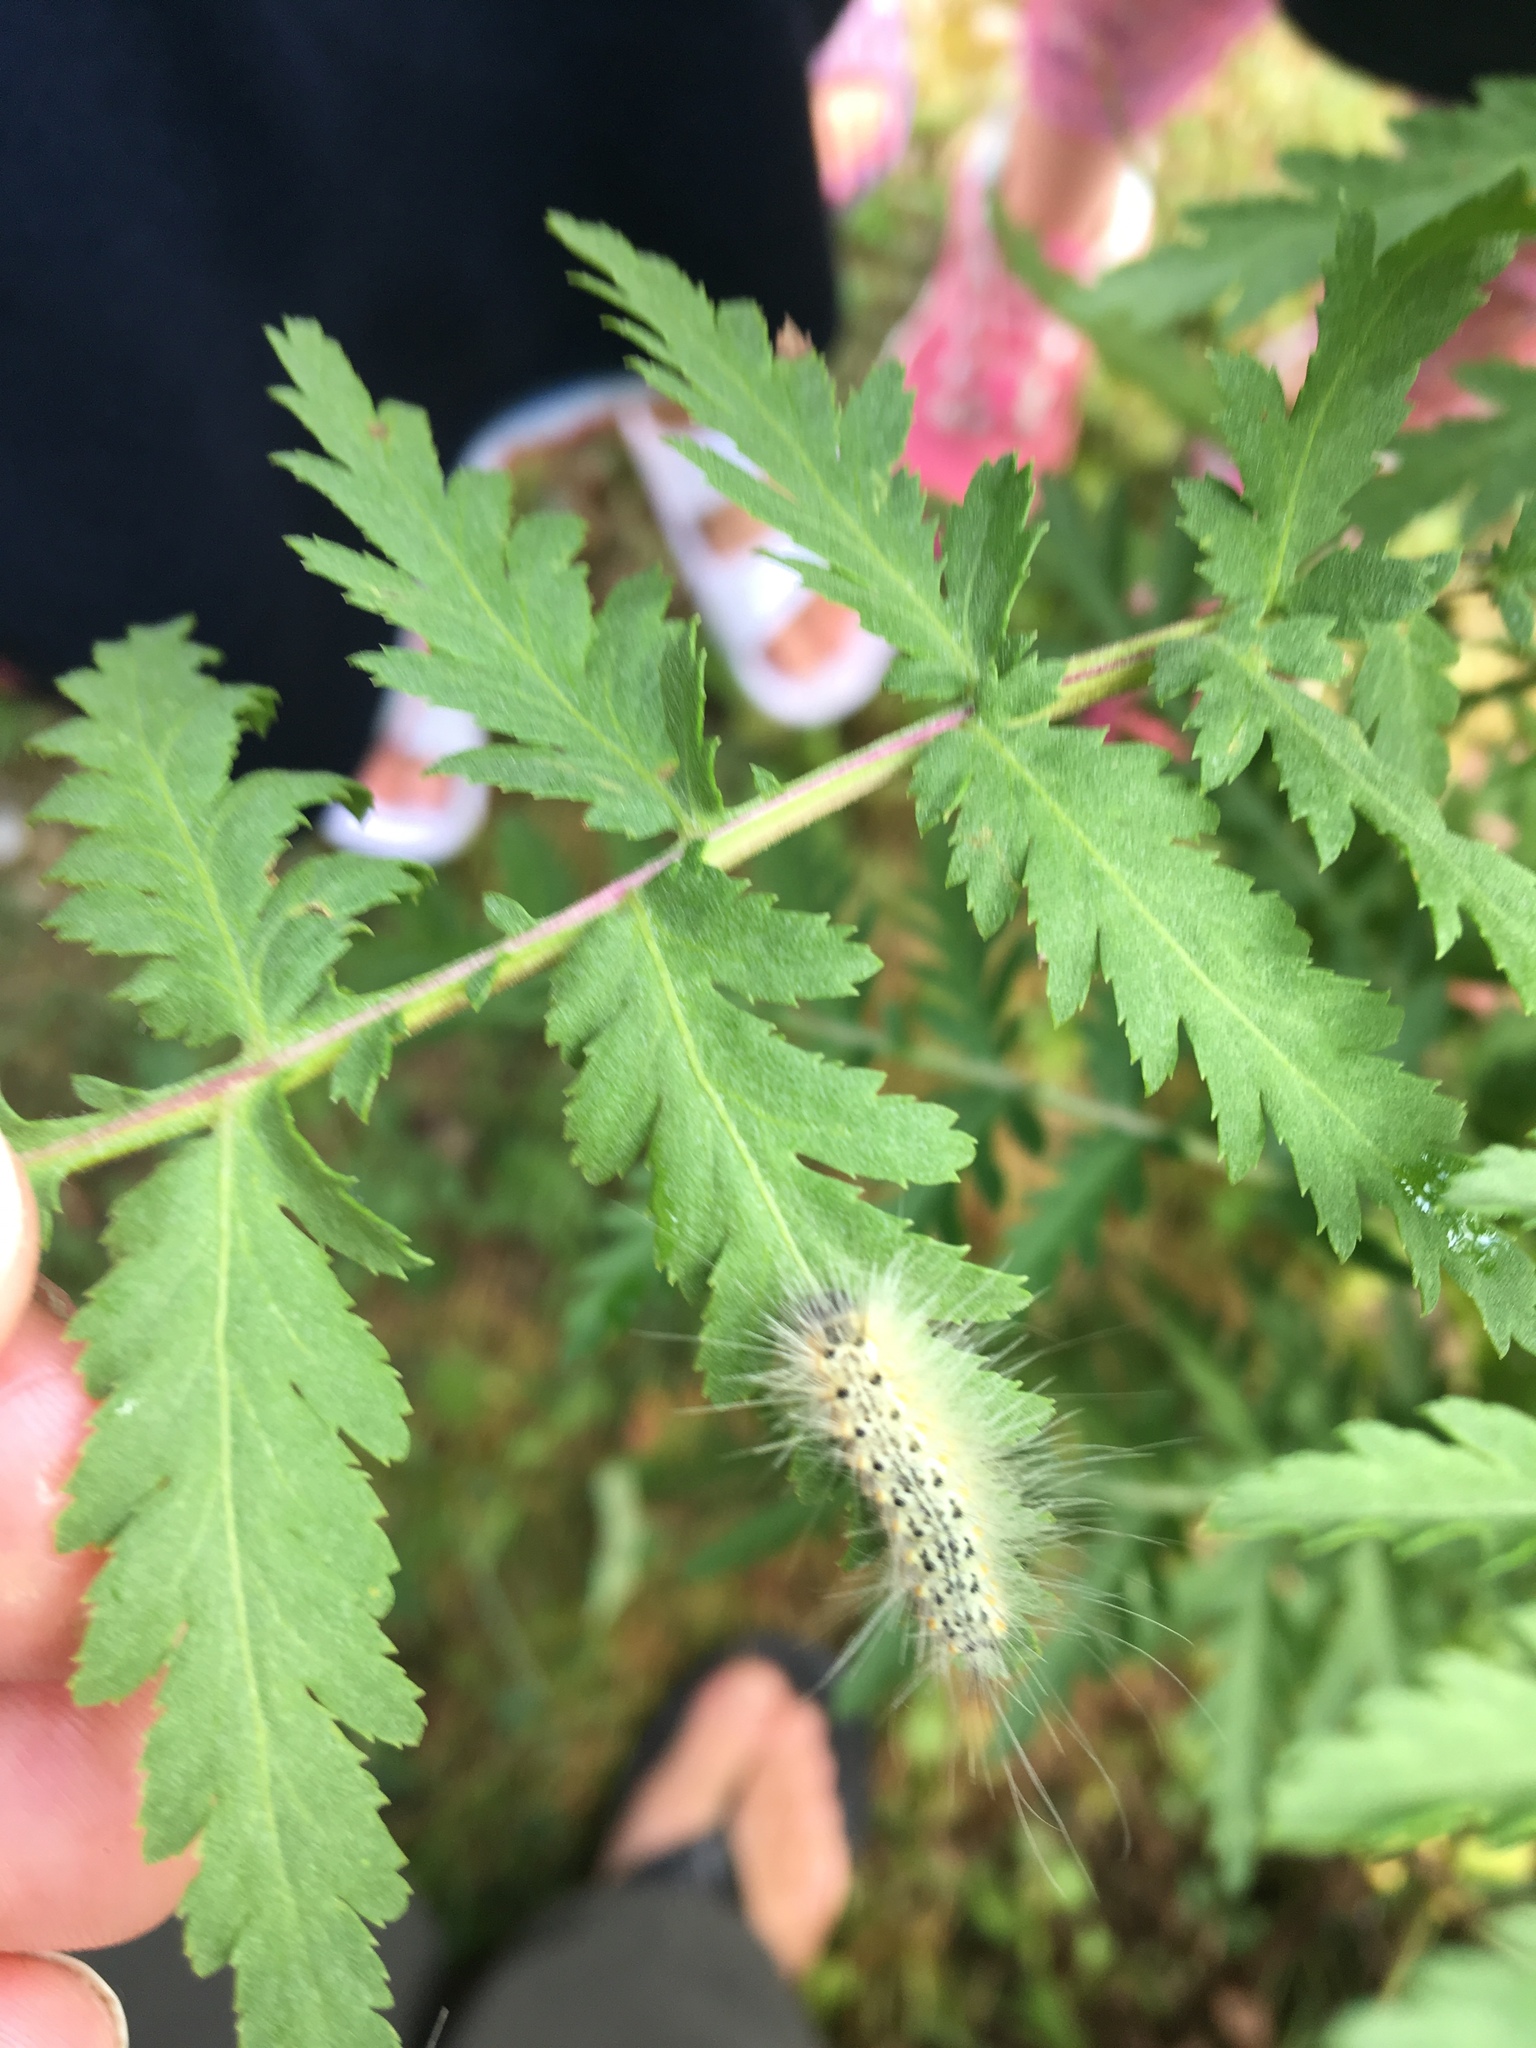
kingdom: Animalia
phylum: Arthropoda
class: Insecta
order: Lepidoptera
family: Erebidae
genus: Hyphantria
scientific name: Hyphantria cunea
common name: American white moth
